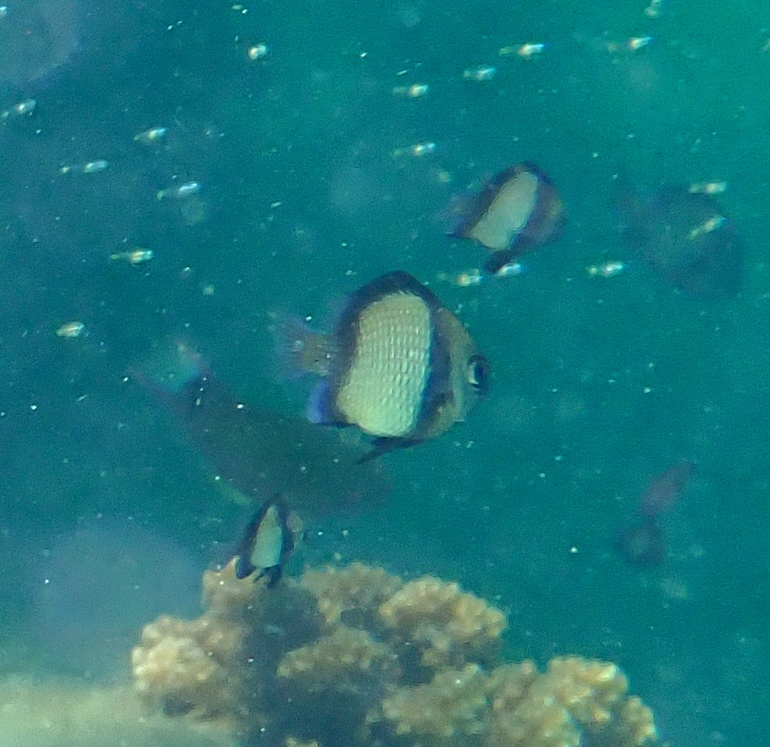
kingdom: Animalia
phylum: Chordata
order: Perciformes
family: Pomacentridae
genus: Dascyllus
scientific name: Dascyllus reticulatus
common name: Reticulated dascyllus
